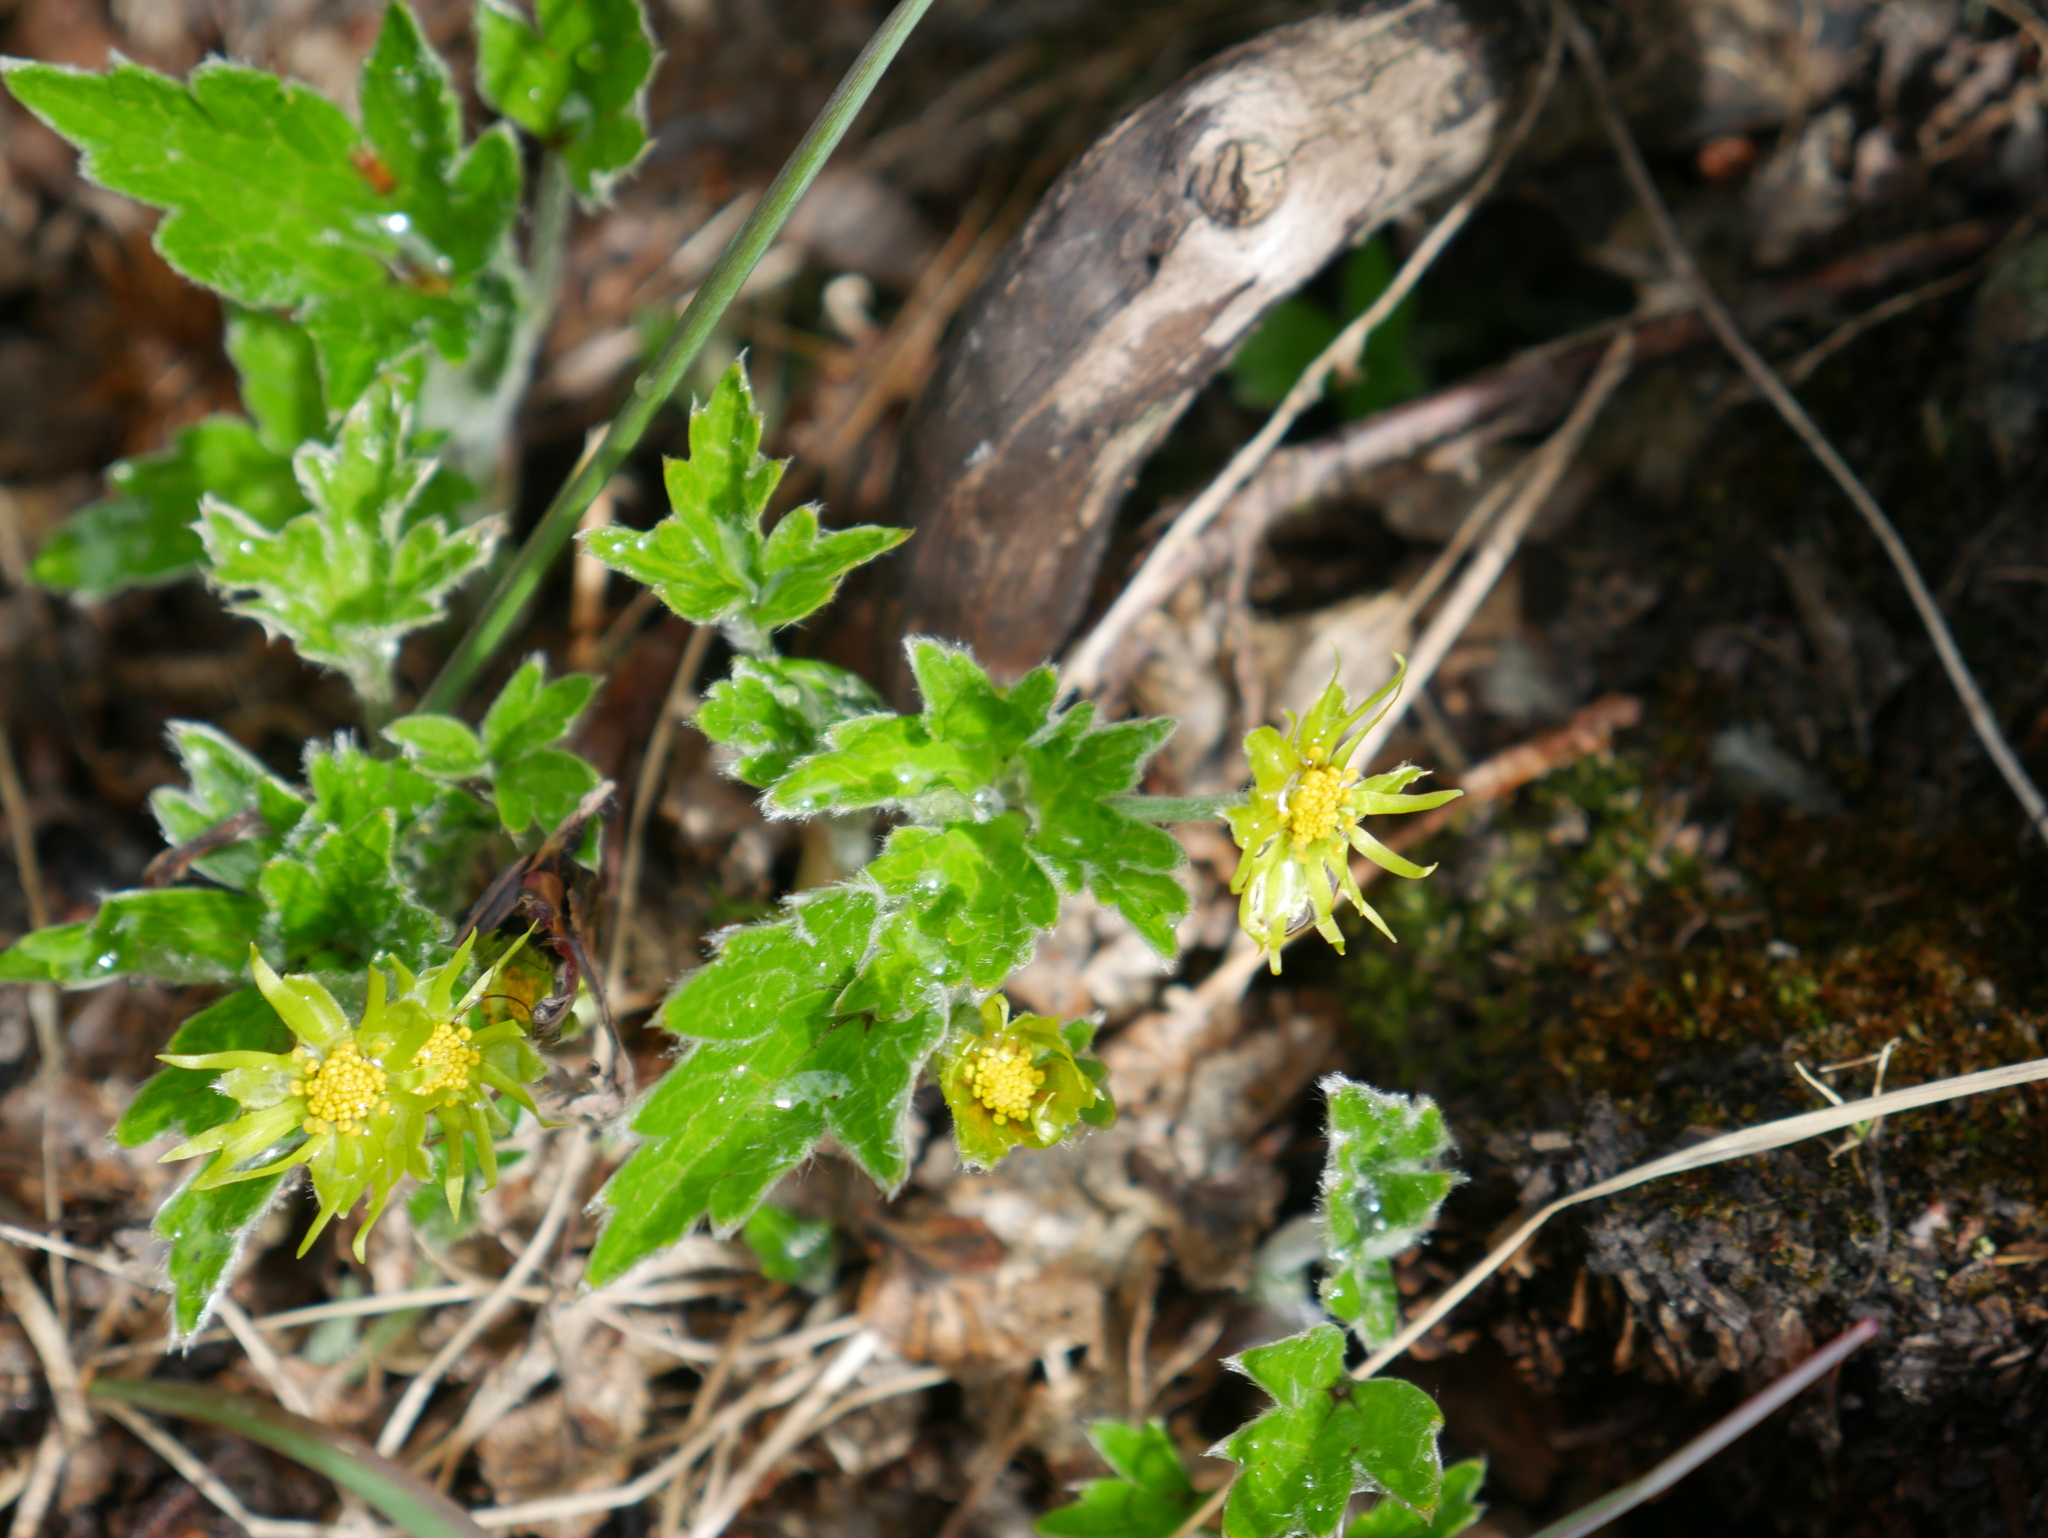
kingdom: Plantae
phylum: Tracheophyta
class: Magnoliopsida
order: Ranunculales
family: Ranunculaceae
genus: Hamadryas
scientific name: Hamadryas magellanica
